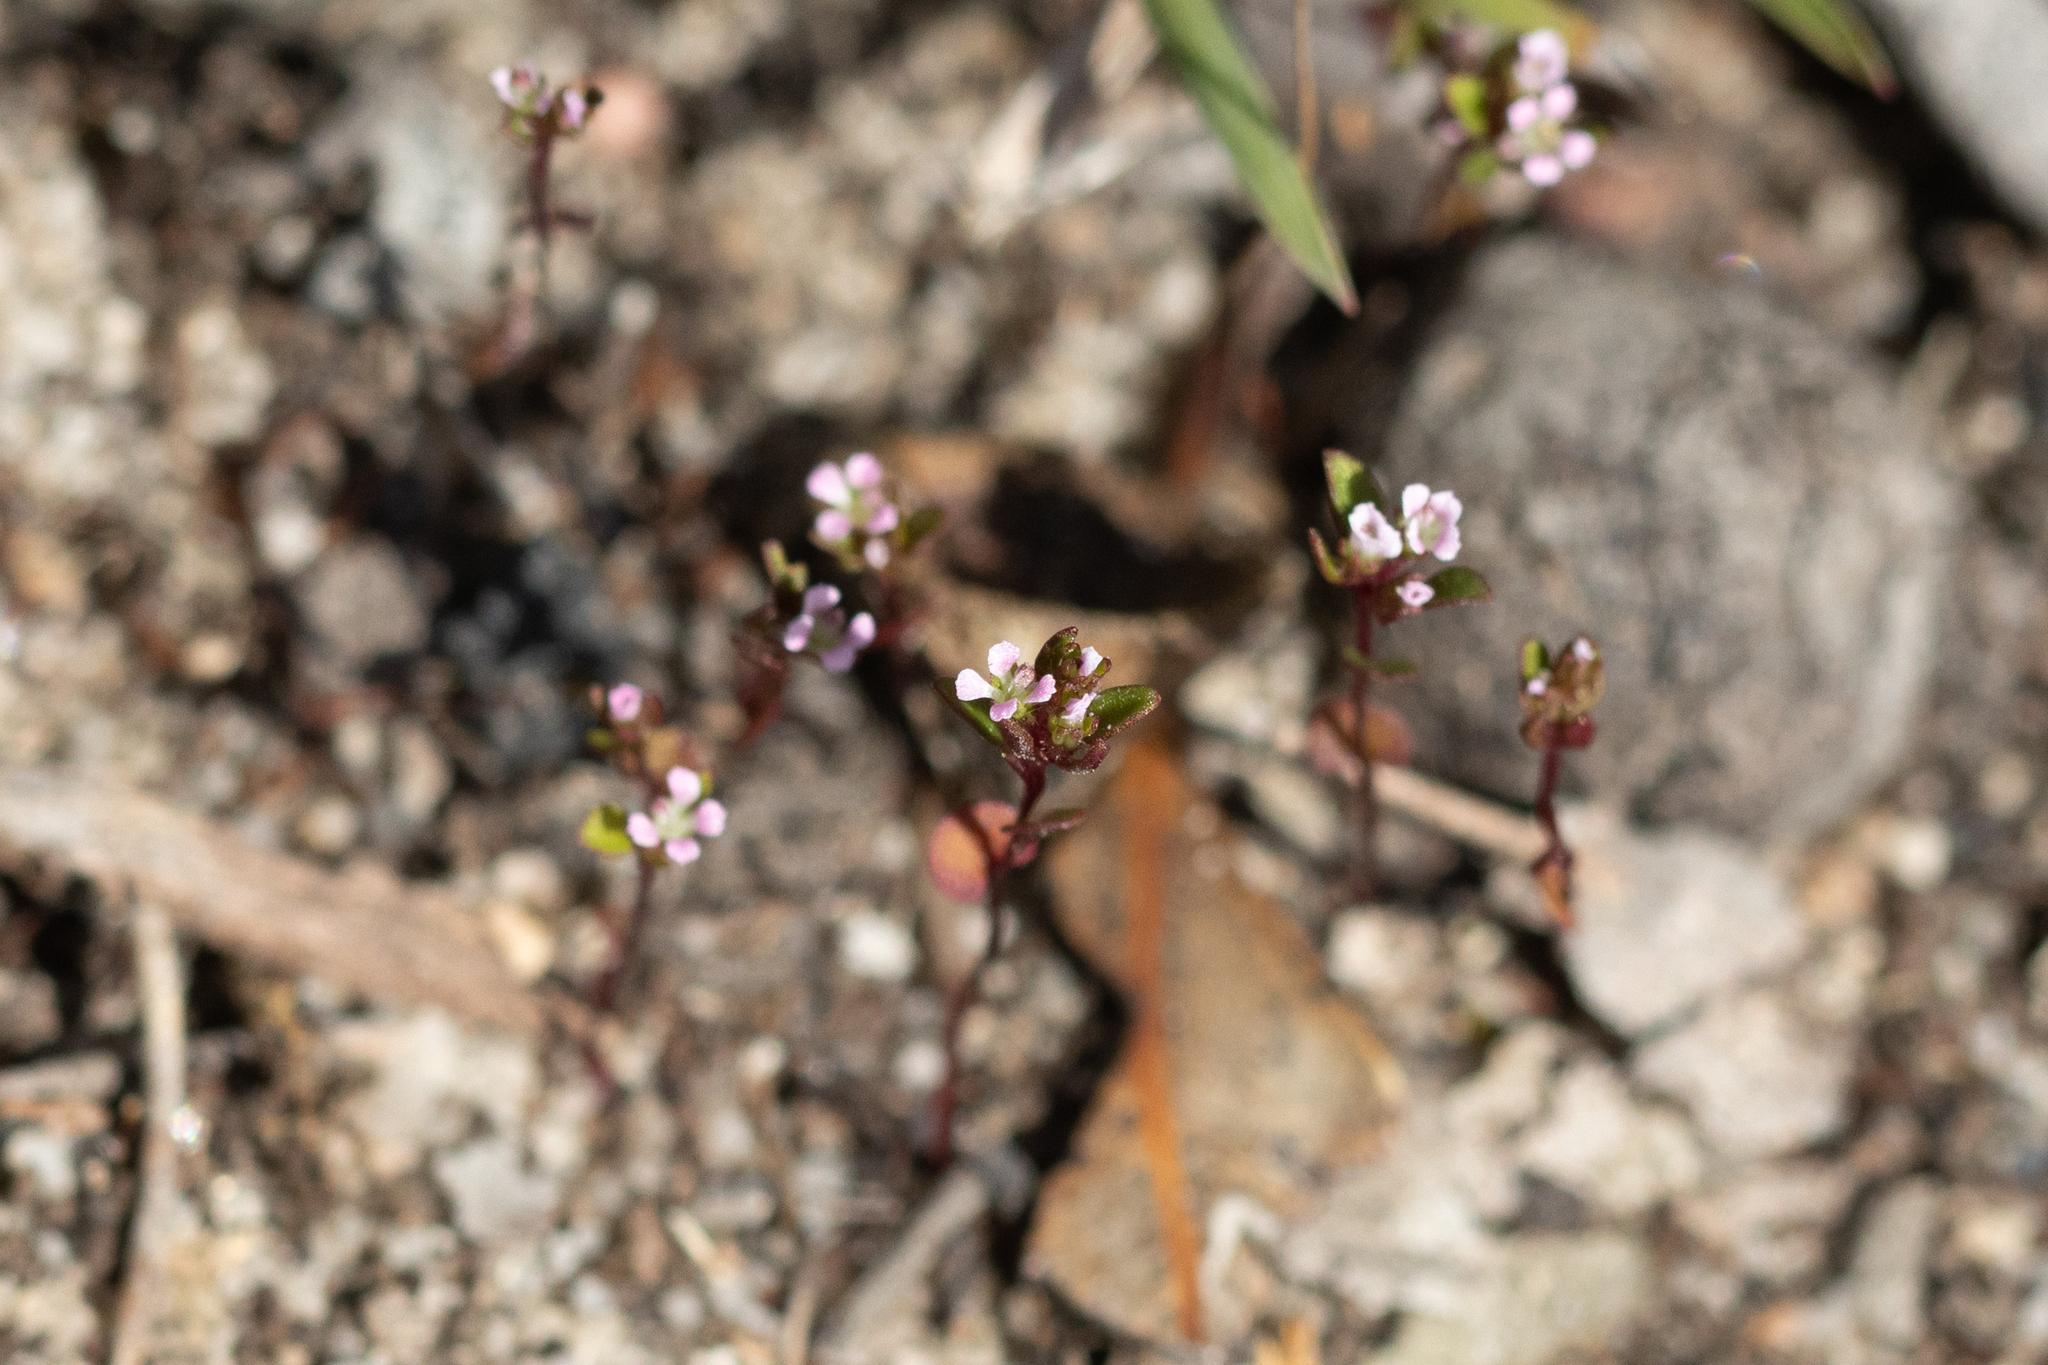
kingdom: Plantae
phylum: Tracheophyta
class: Magnoliopsida
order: Asterales
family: Stylidiaceae
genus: Levenhookia
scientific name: Levenhookia pusilla
